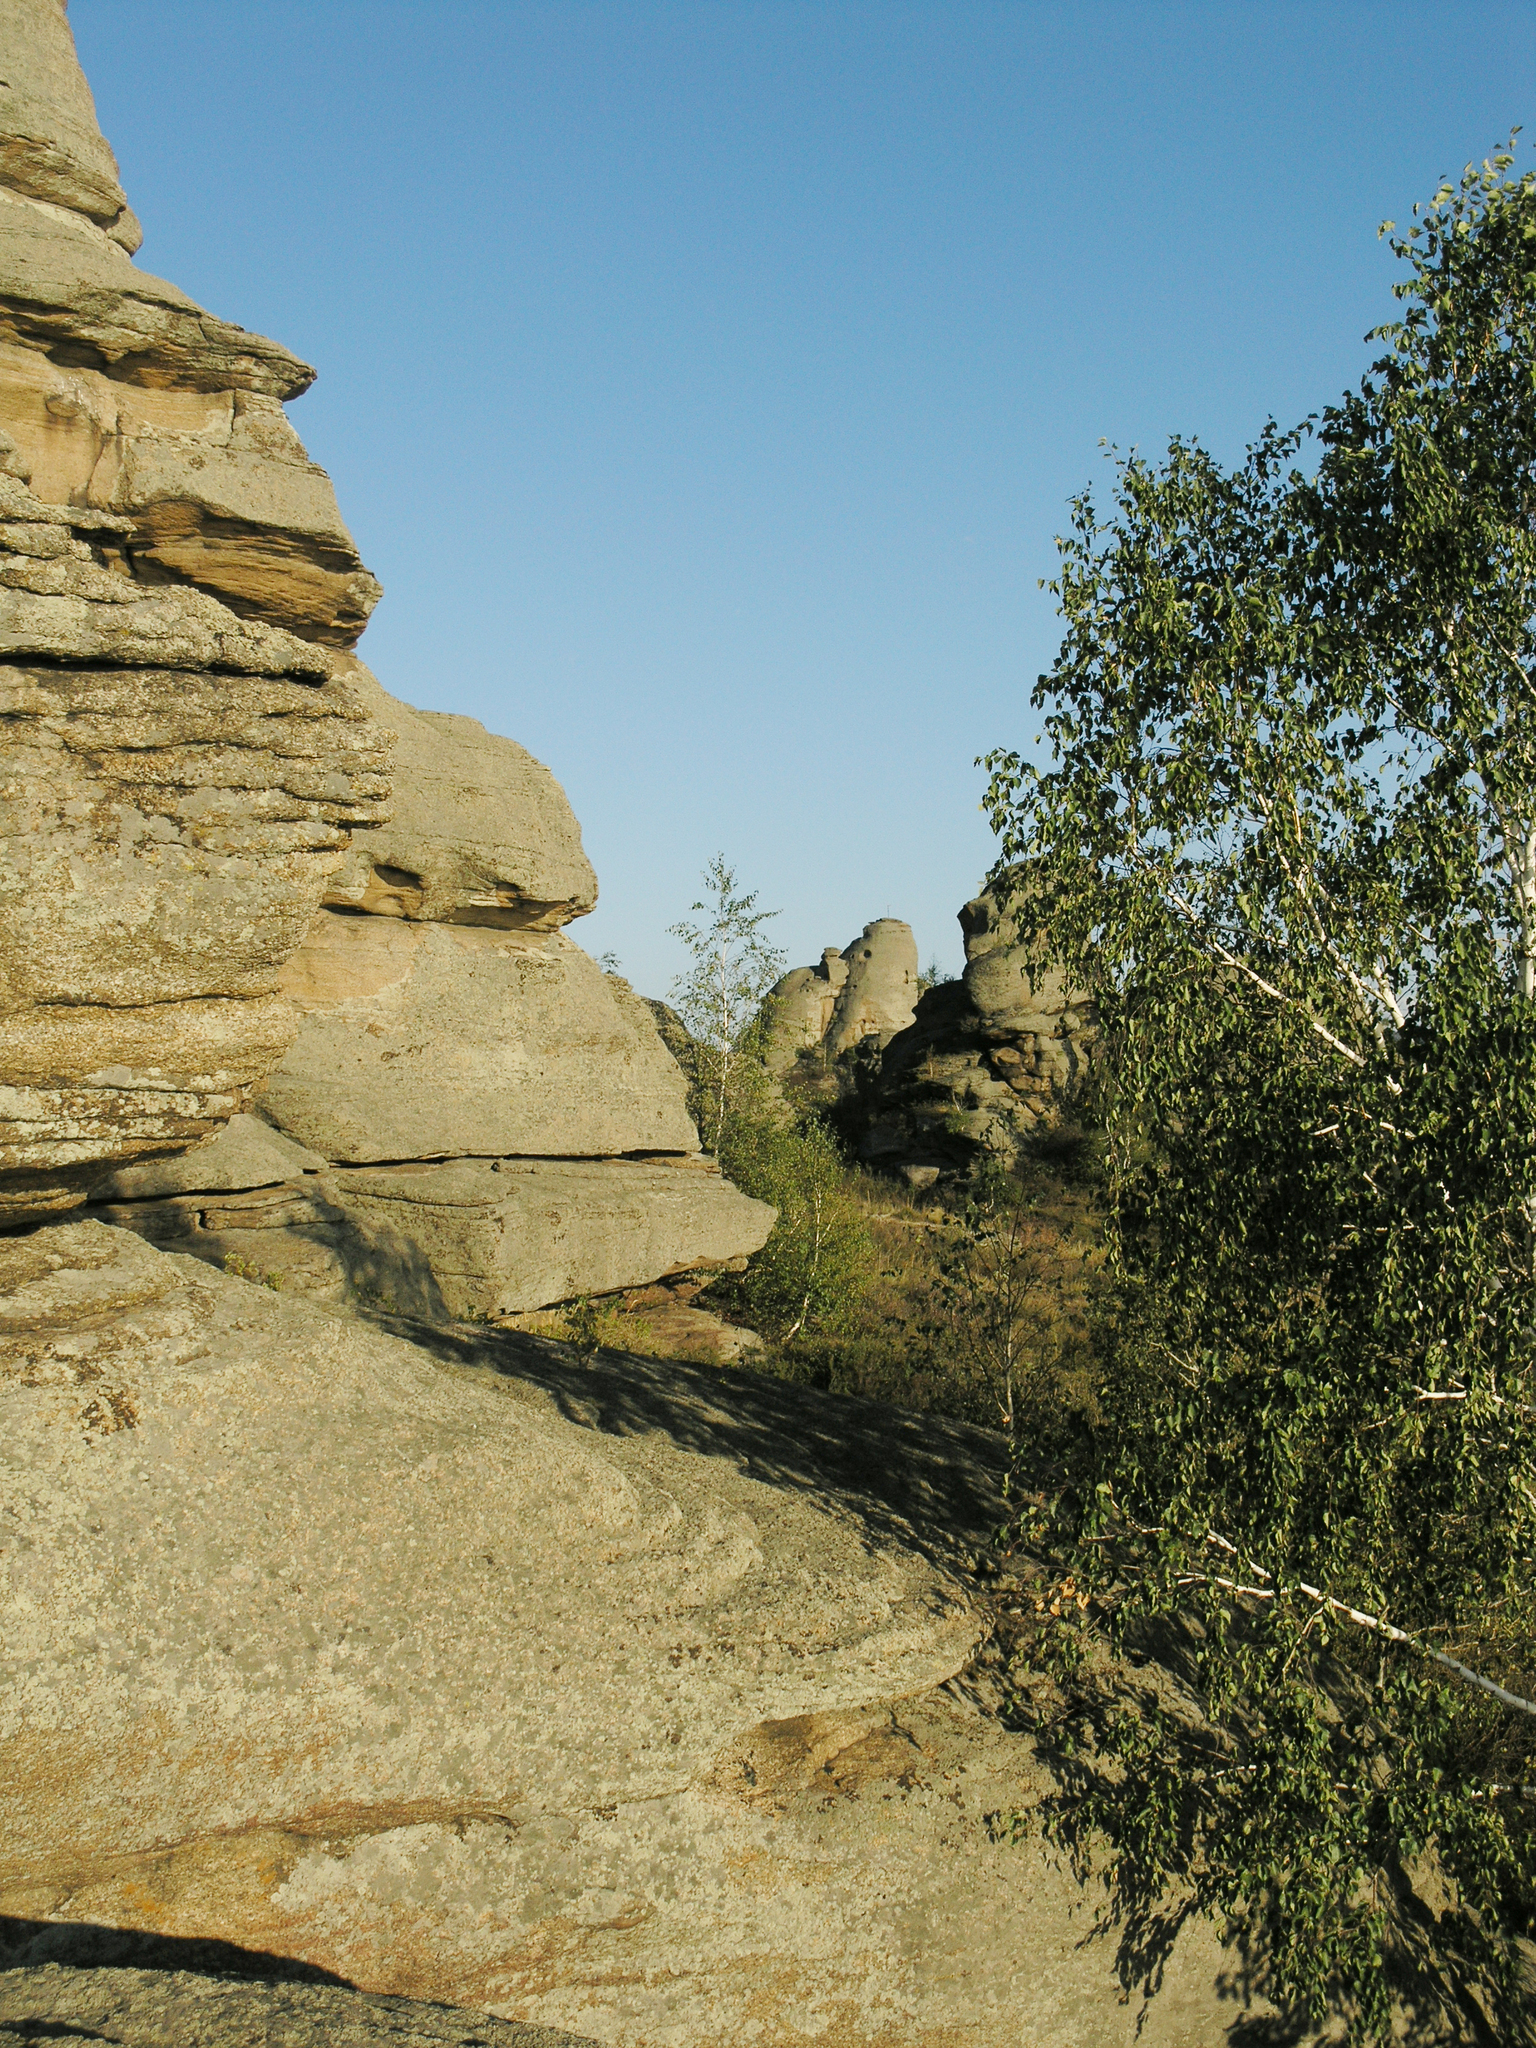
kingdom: Plantae
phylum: Tracheophyta
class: Magnoliopsida
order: Fagales
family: Betulaceae
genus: Betula
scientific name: Betula pendula
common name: Silver birch
